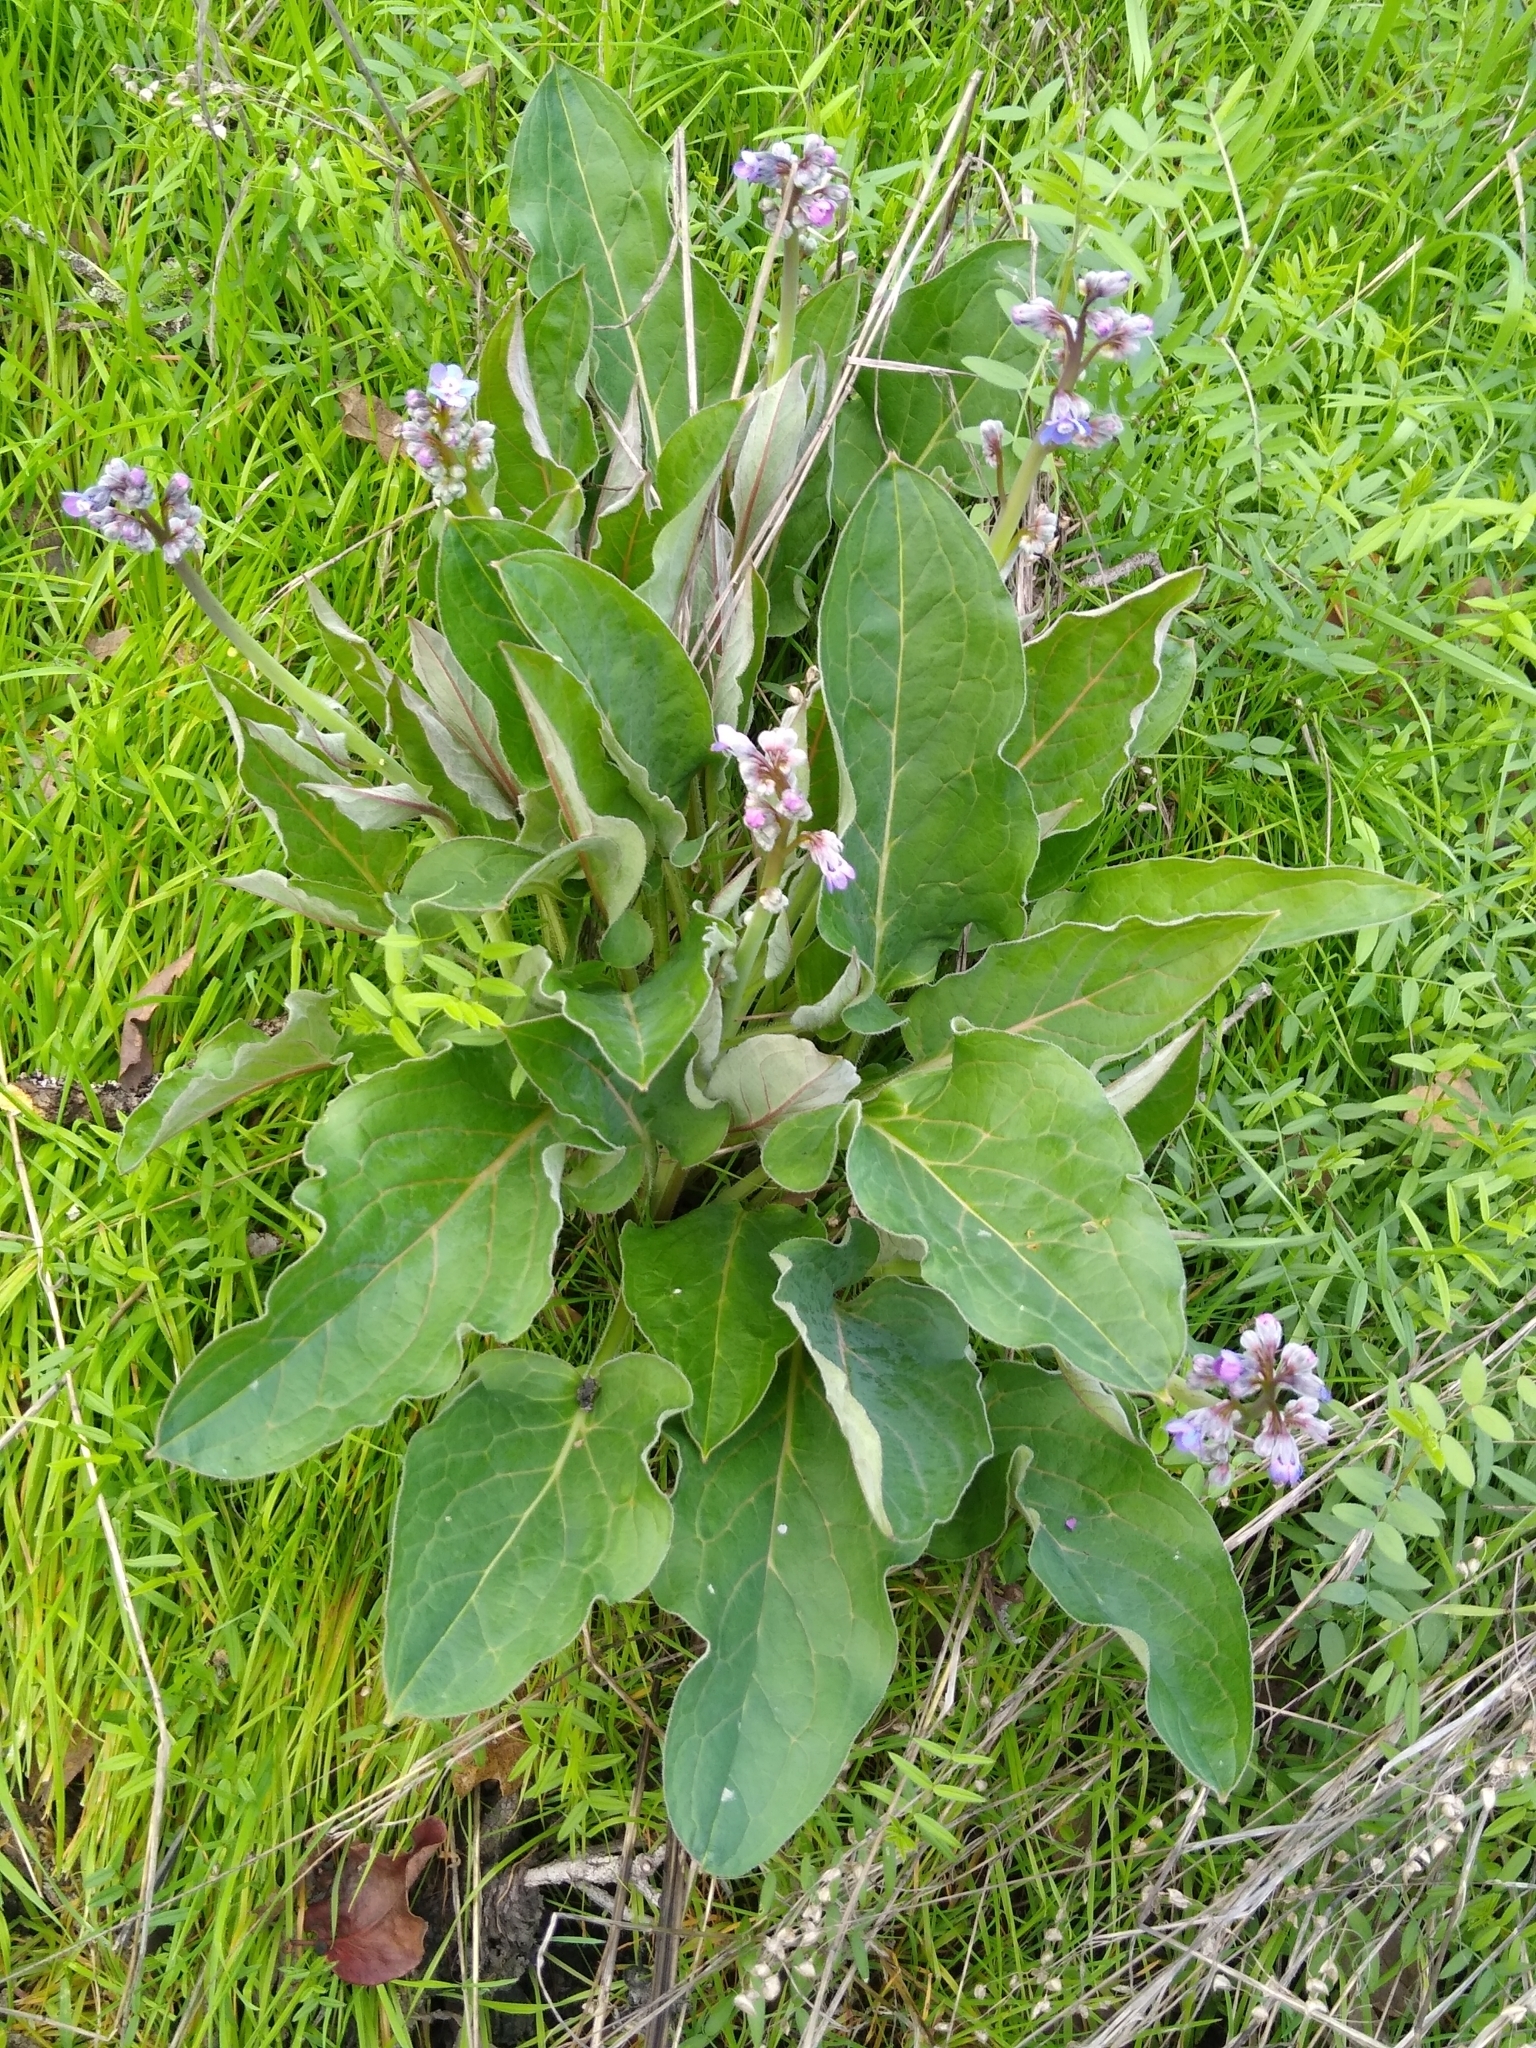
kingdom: Plantae
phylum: Tracheophyta
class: Magnoliopsida
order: Boraginales
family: Boraginaceae
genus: Adelinia
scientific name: Adelinia grande
